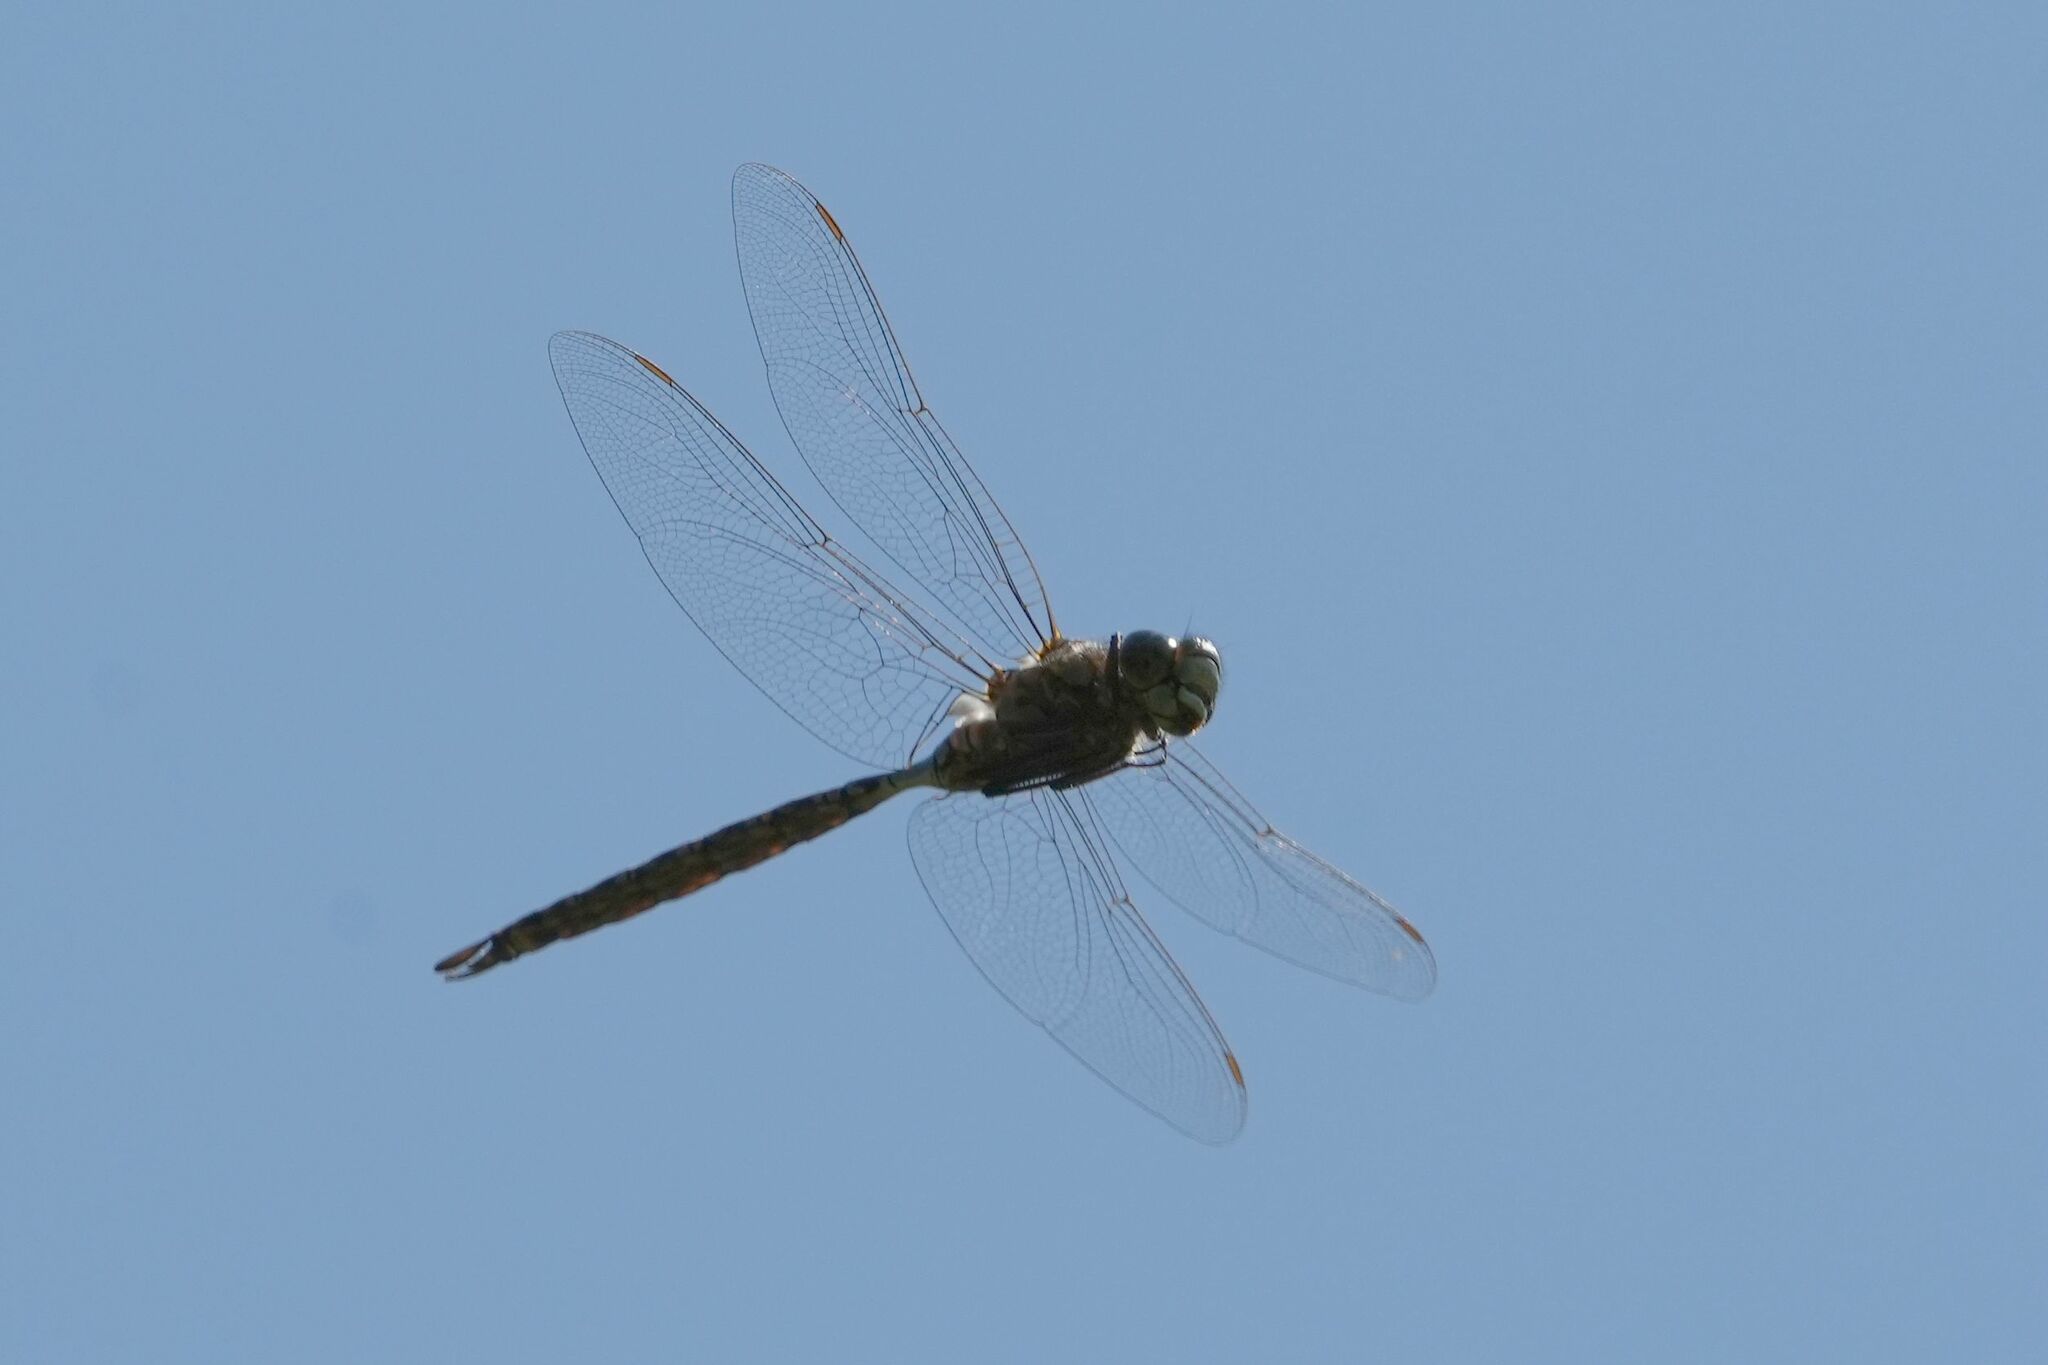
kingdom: Animalia
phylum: Arthropoda
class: Insecta
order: Odonata
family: Aeshnidae
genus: Aeshna
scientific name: Aeshna eremita
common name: Lake darner
